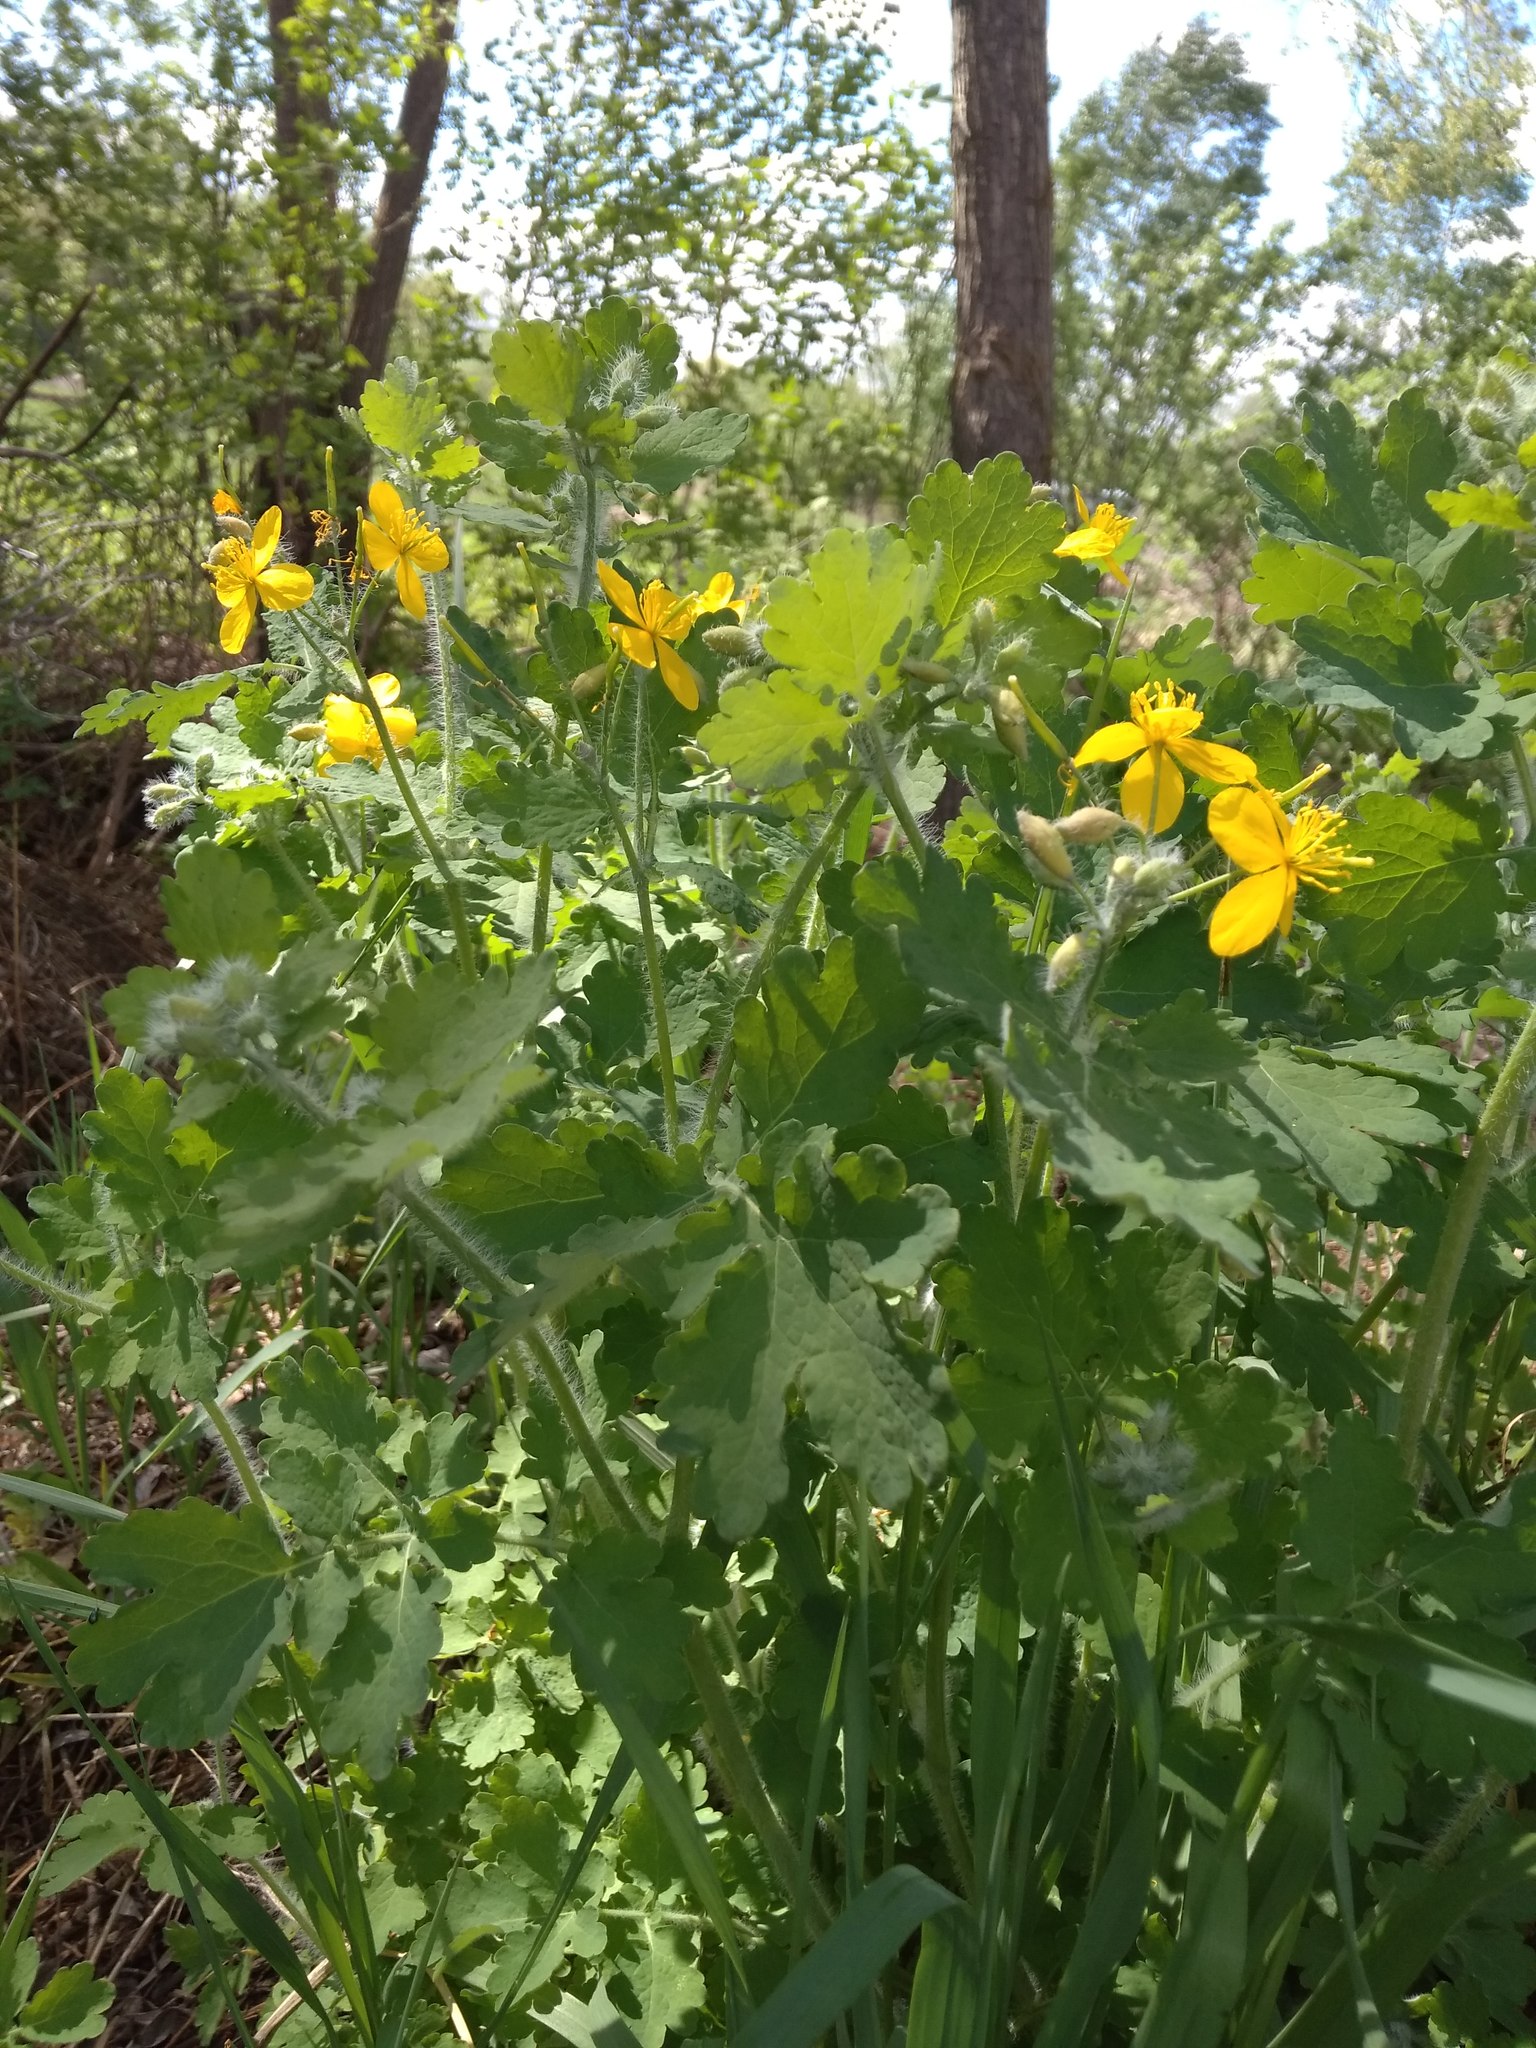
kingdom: Plantae
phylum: Tracheophyta
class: Magnoliopsida
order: Ranunculales
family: Papaveraceae
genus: Chelidonium
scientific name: Chelidonium majus
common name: Greater celandine
